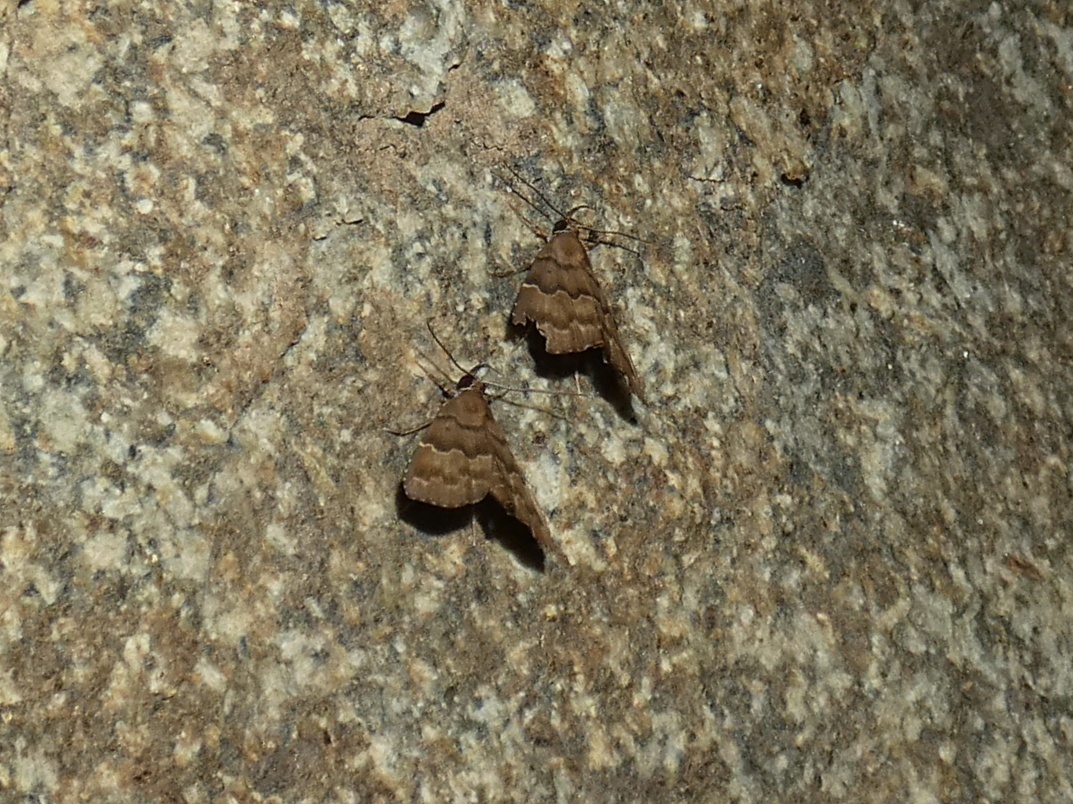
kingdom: Animalia
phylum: Arthropoda
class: Insecta
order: Lepidoptera
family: Erebidae
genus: Catada
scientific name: Catada charalis
